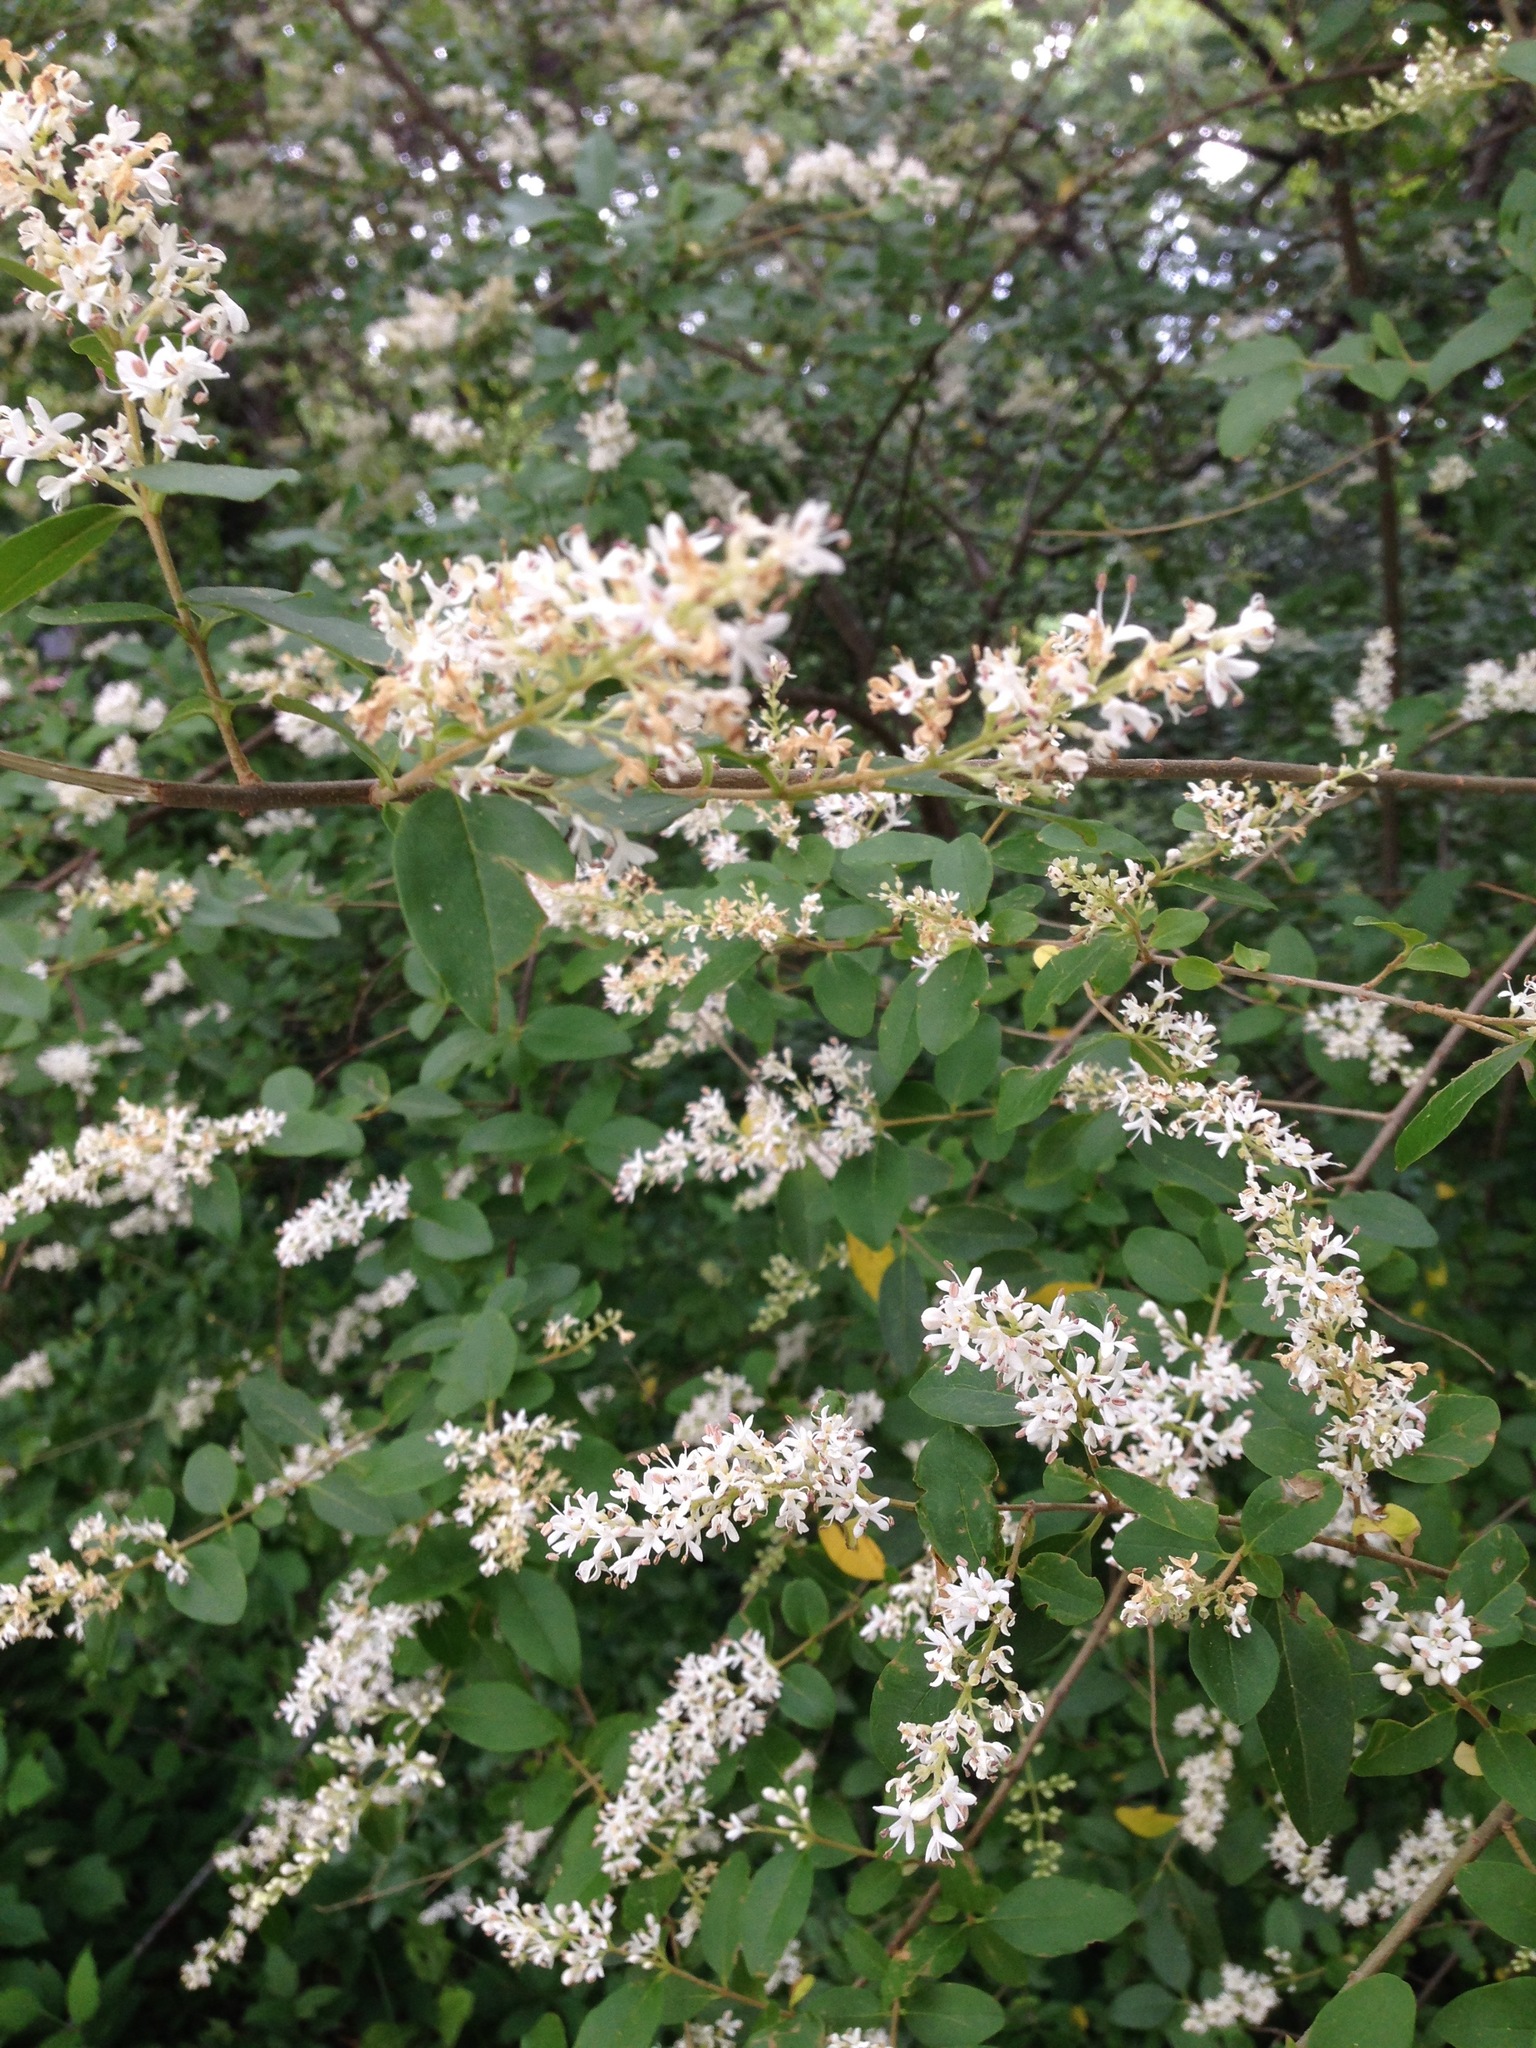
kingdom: Plantae
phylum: Tracheophyta
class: Magnoliopsida
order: Lamiales
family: Oleaceae
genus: Ligustrum
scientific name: Ligustrum sinense
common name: Chinese privet
